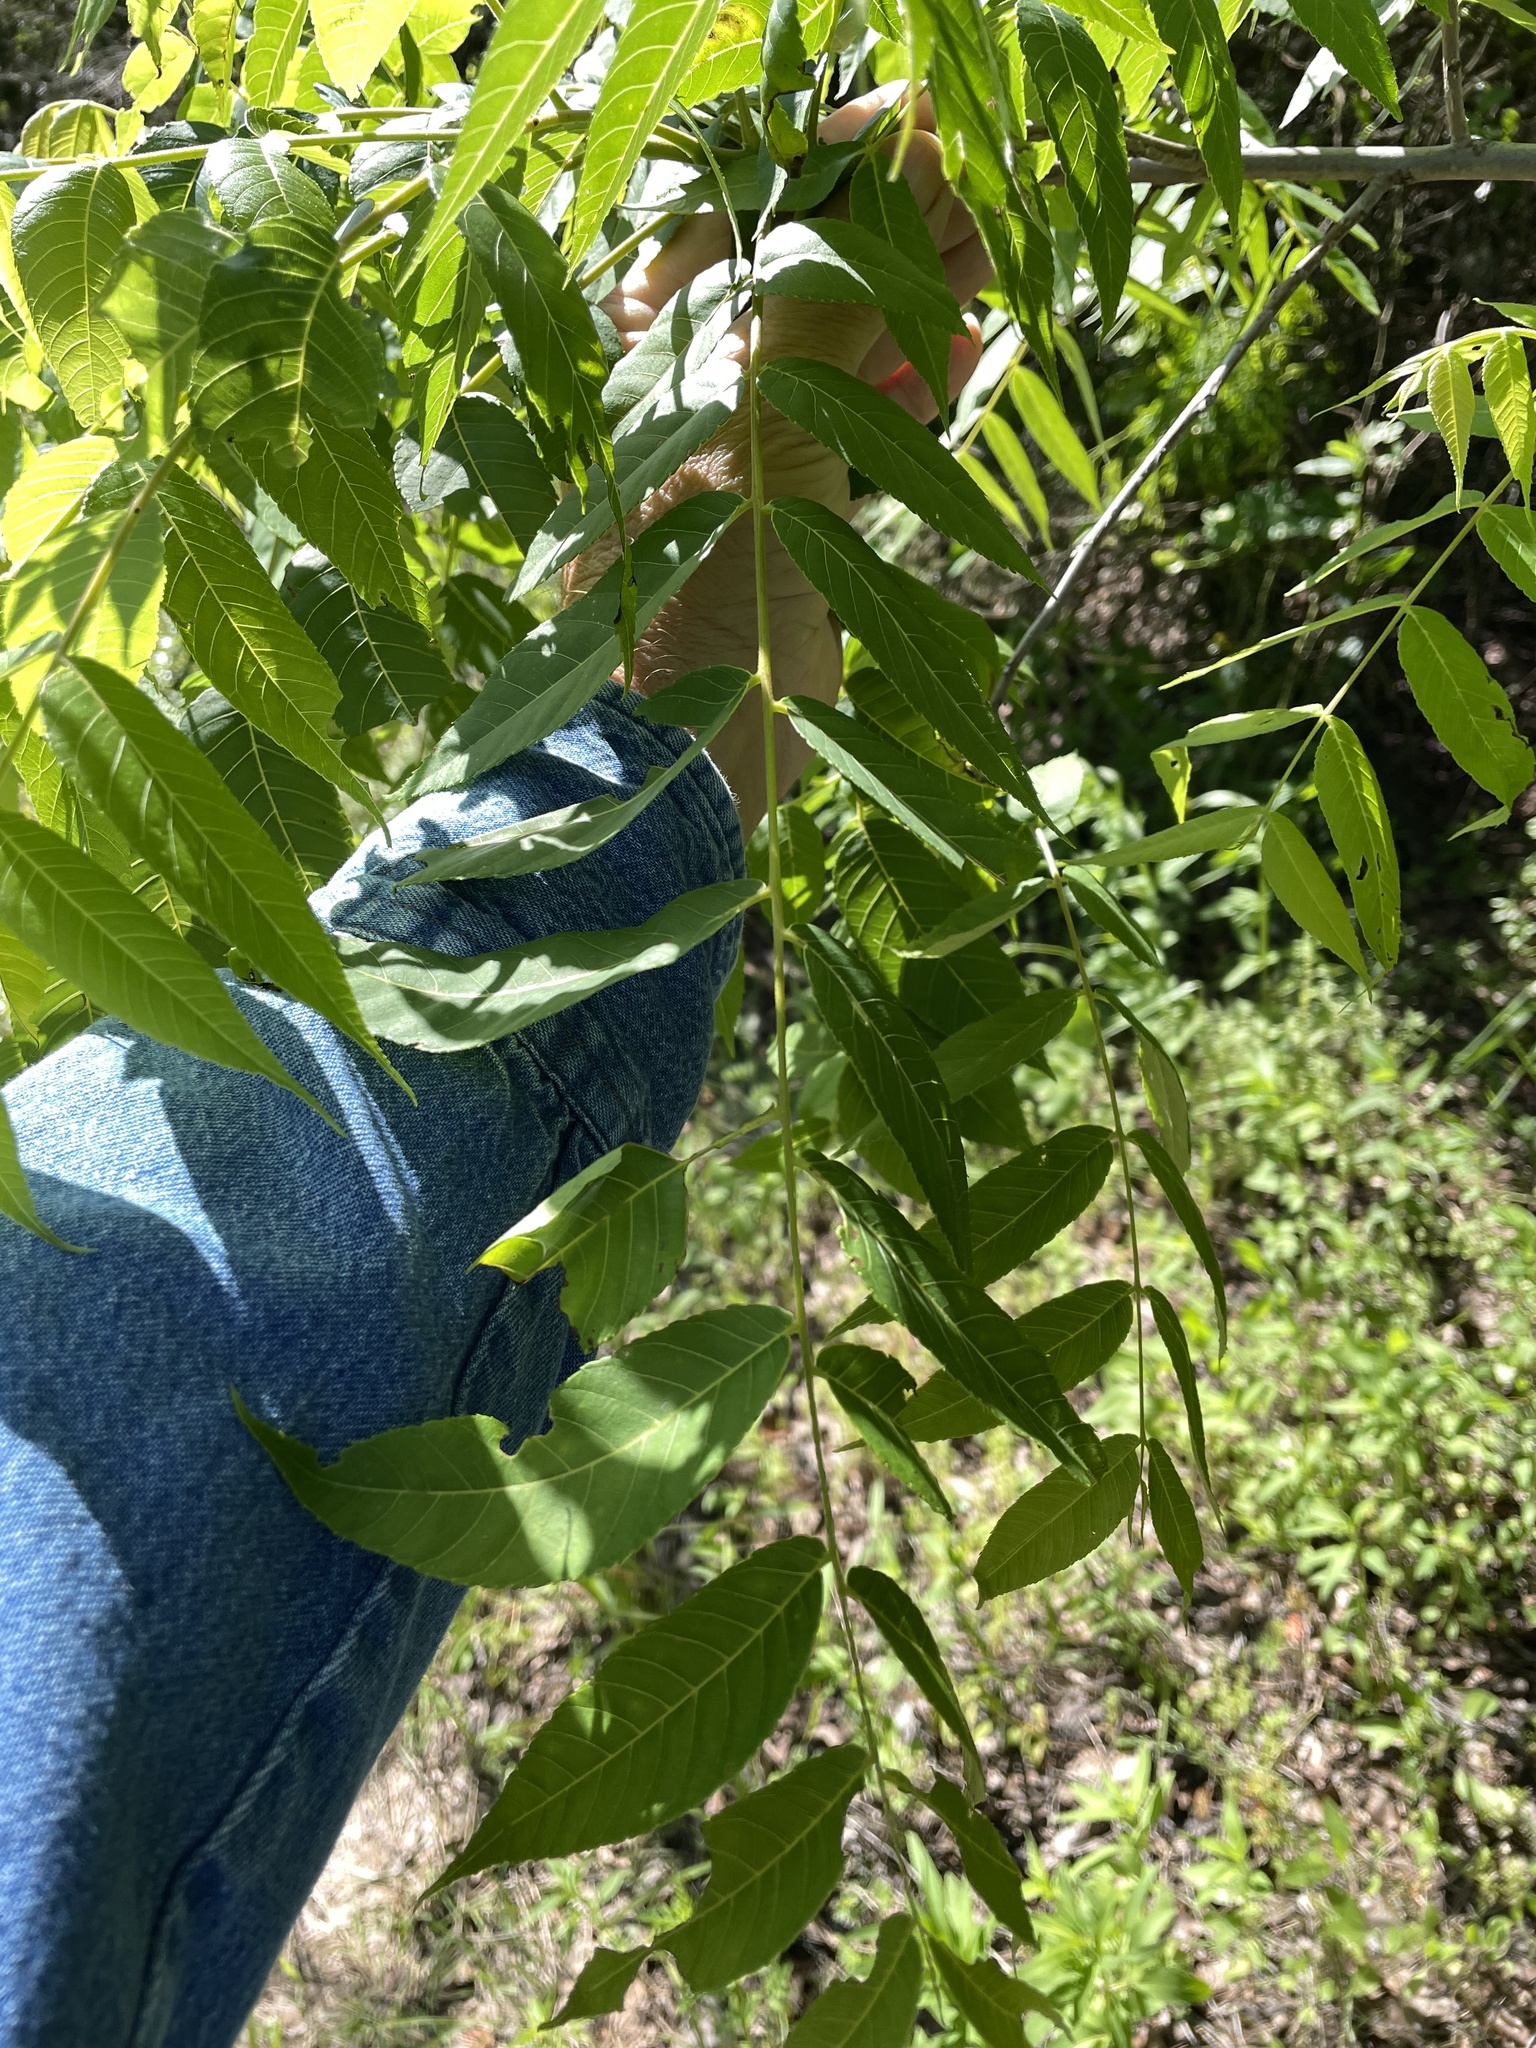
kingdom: Plantae
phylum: Tracheophyta
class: Magnoliopsida
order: Fagales
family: Juglandaceae
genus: Juglans
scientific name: Juglans nigra
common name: Black walnut
